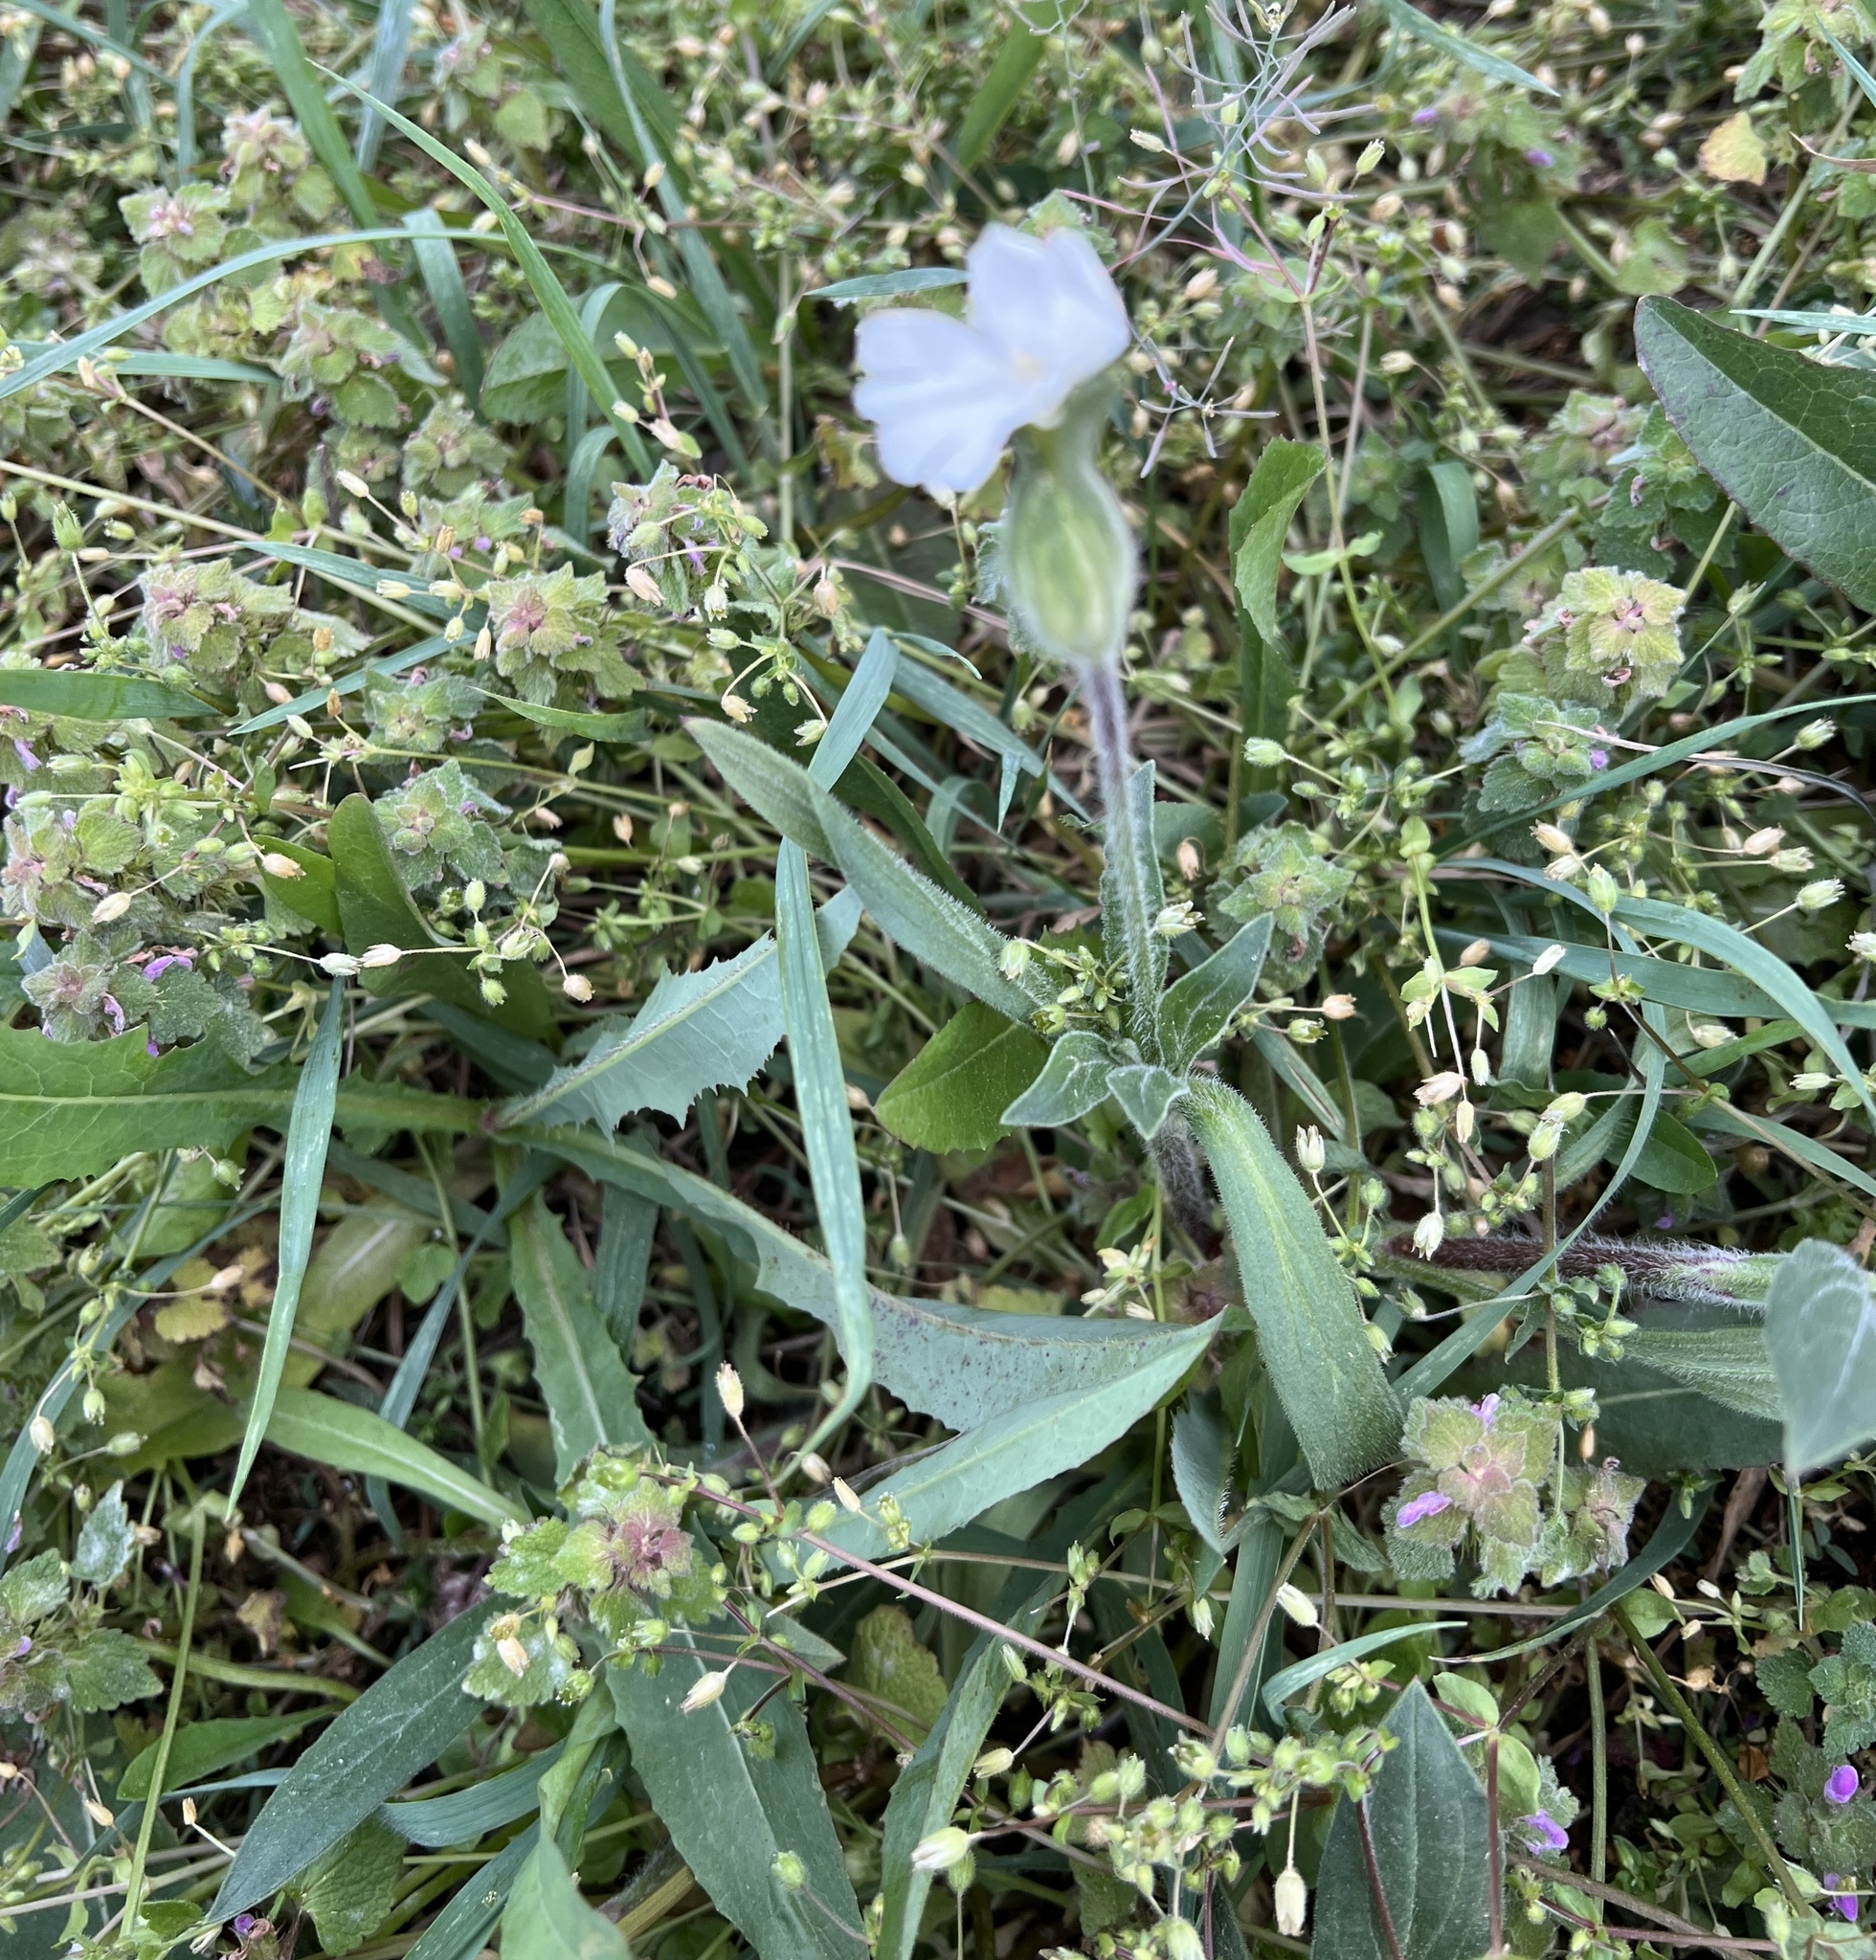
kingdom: Plantae
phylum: Tracheophyta
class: Magnoliopsida
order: Caryophyllales
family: Caryophyllaceae
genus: Silene
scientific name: Silene latifolia
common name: White campion
